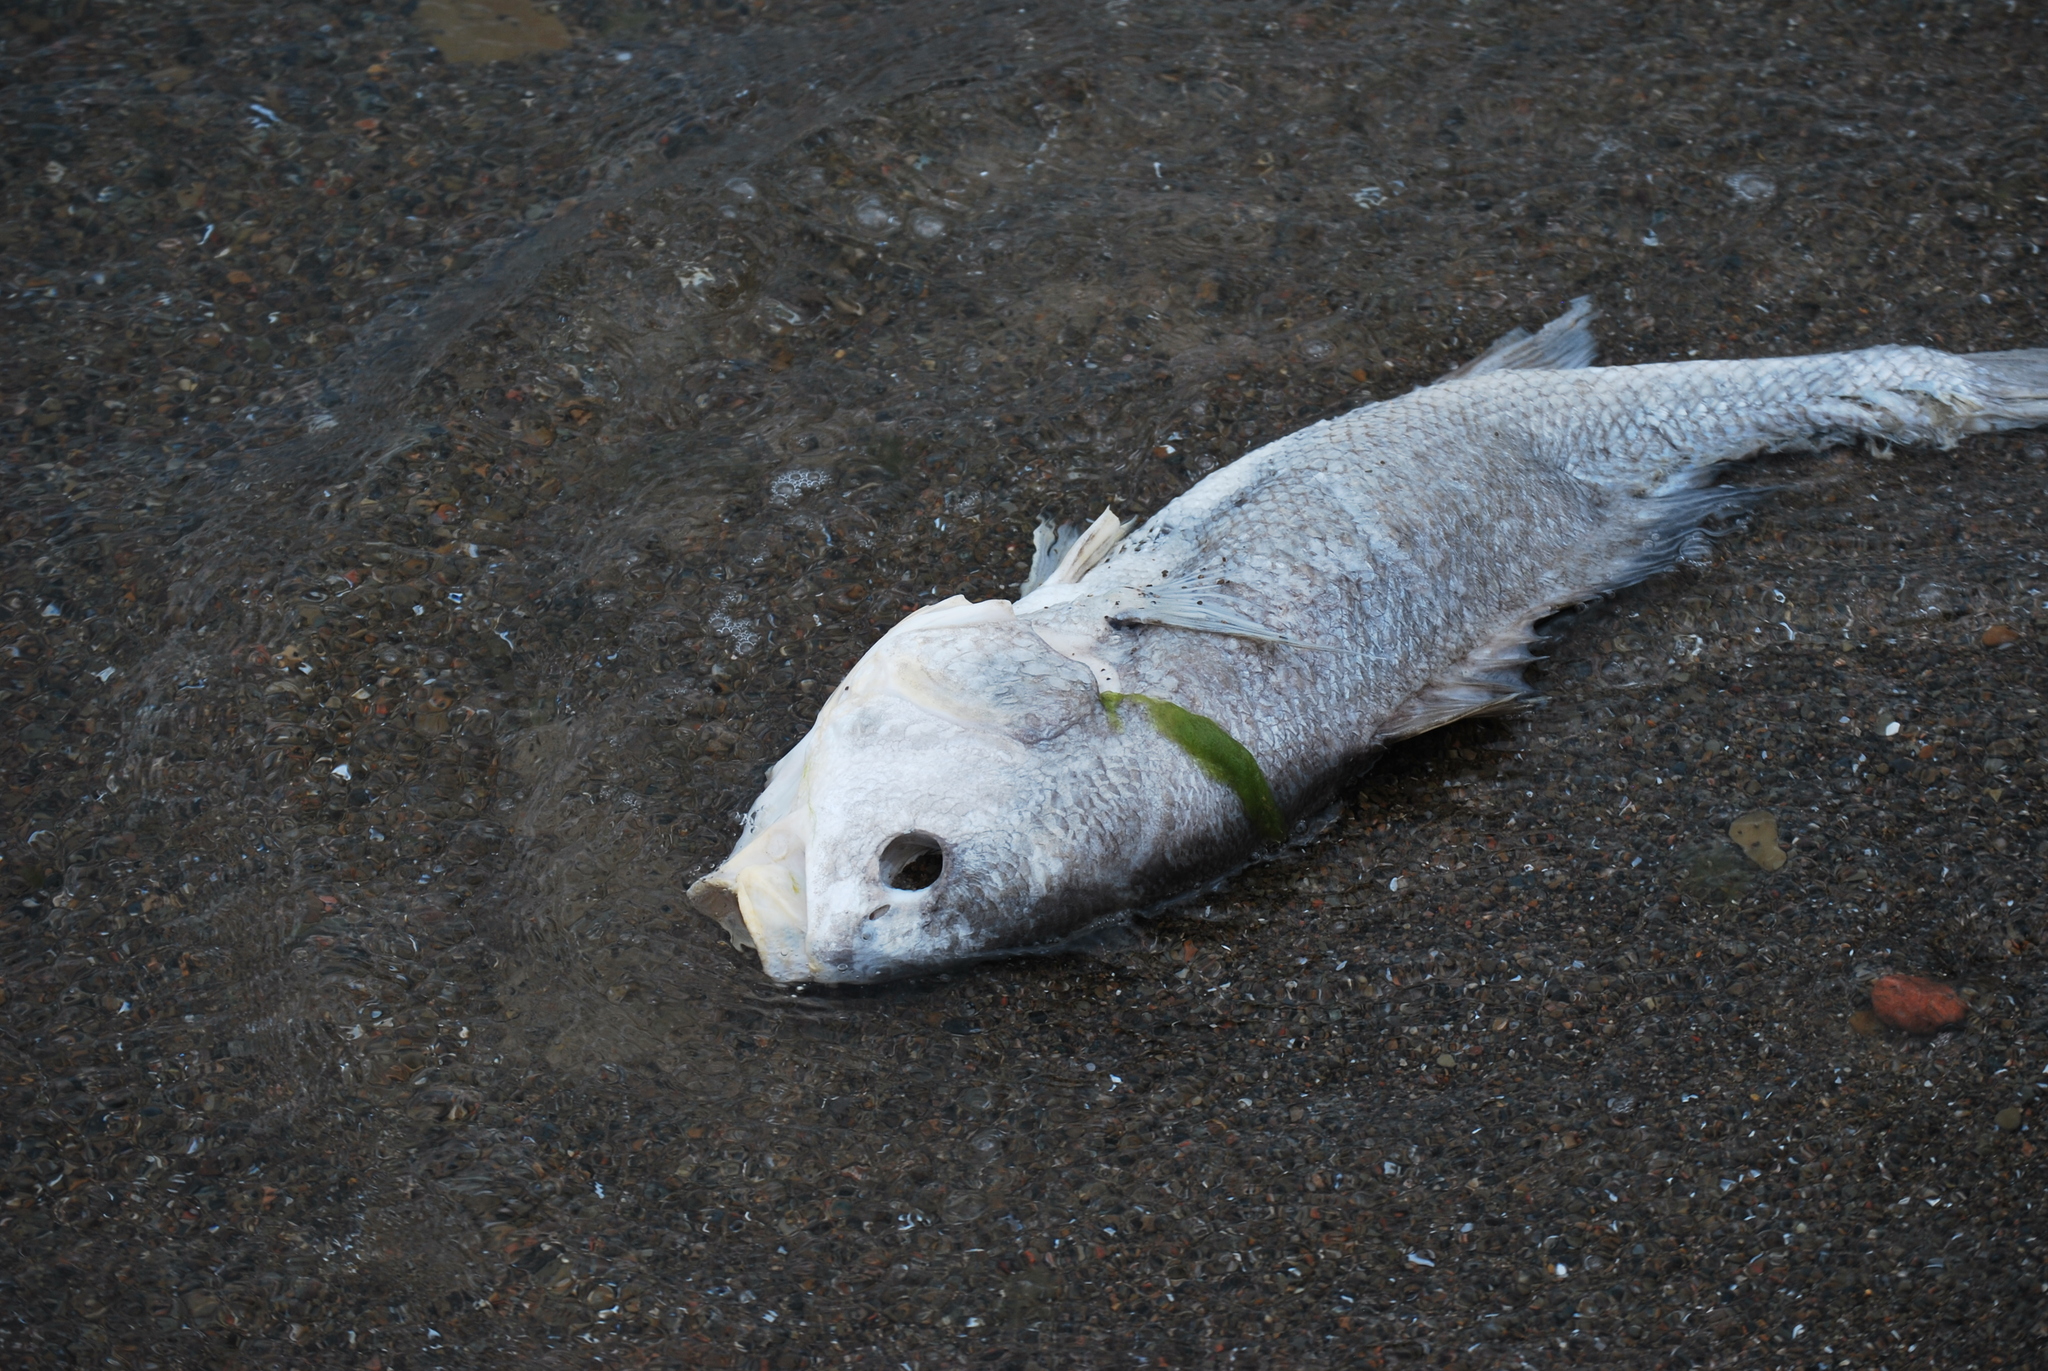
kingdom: Animalia
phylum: Chordata
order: Perciformes
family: Sciaenidae
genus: Aplodinotus
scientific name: Aplodinotus grunniens
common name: Freshwater drum
